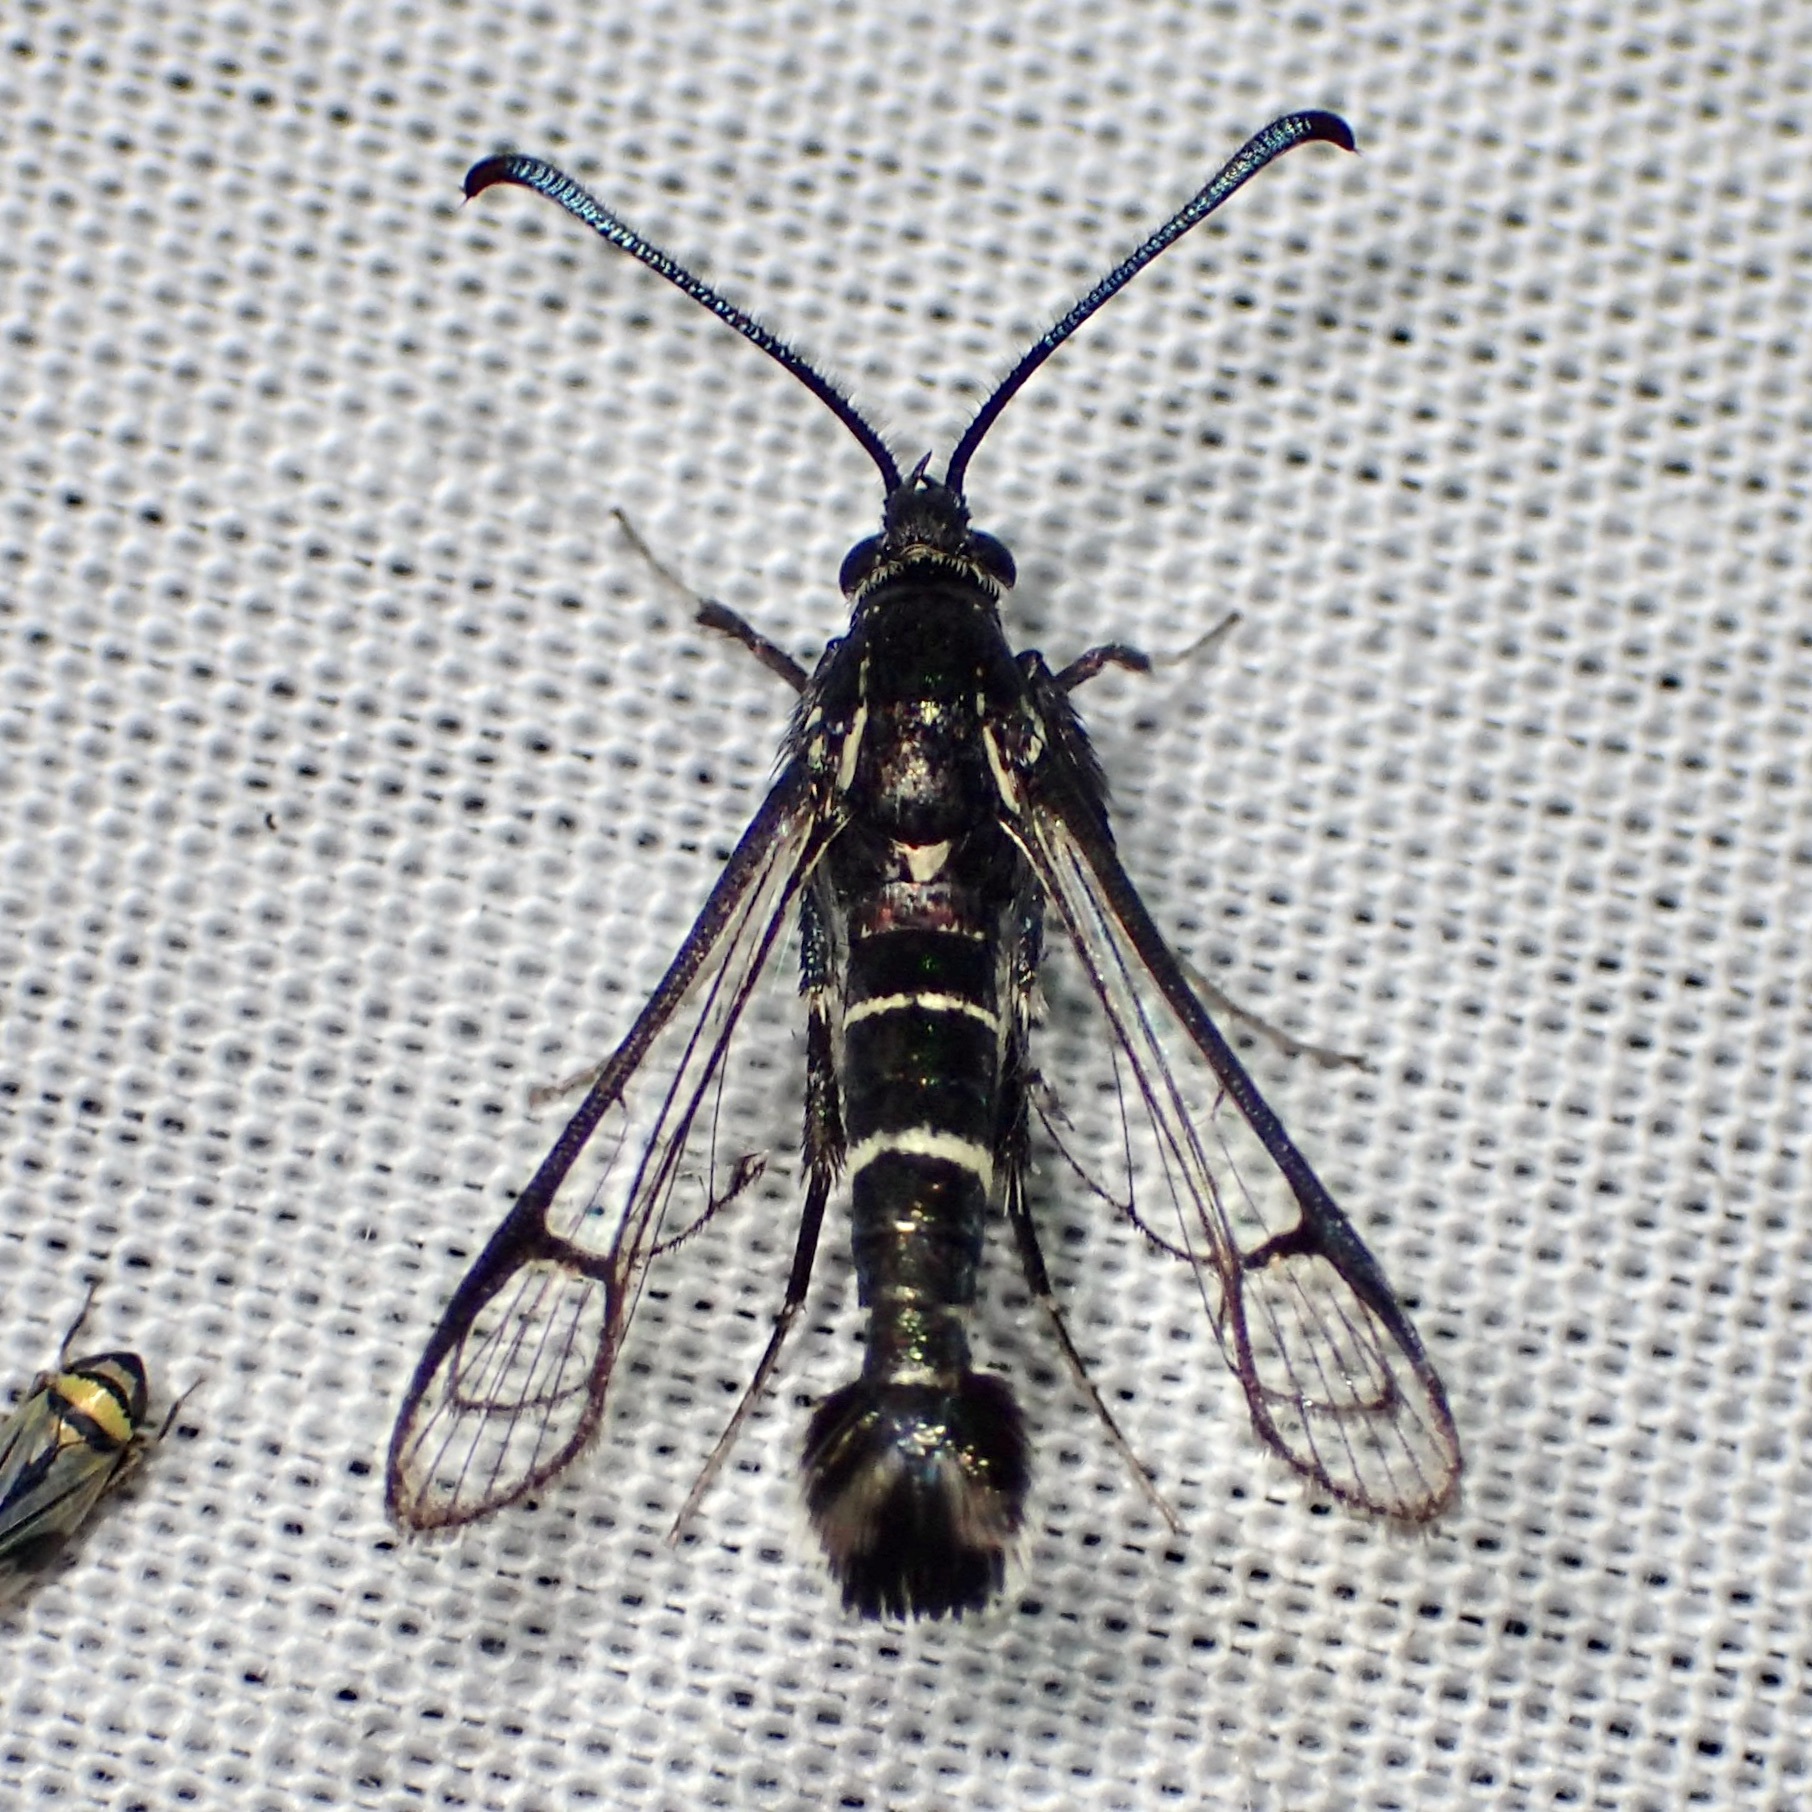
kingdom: Animalia
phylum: Arthropoda
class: Insecta
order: Lepidoptera
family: Sesiidae
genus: Carmenta
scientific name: Carmenta tecta
